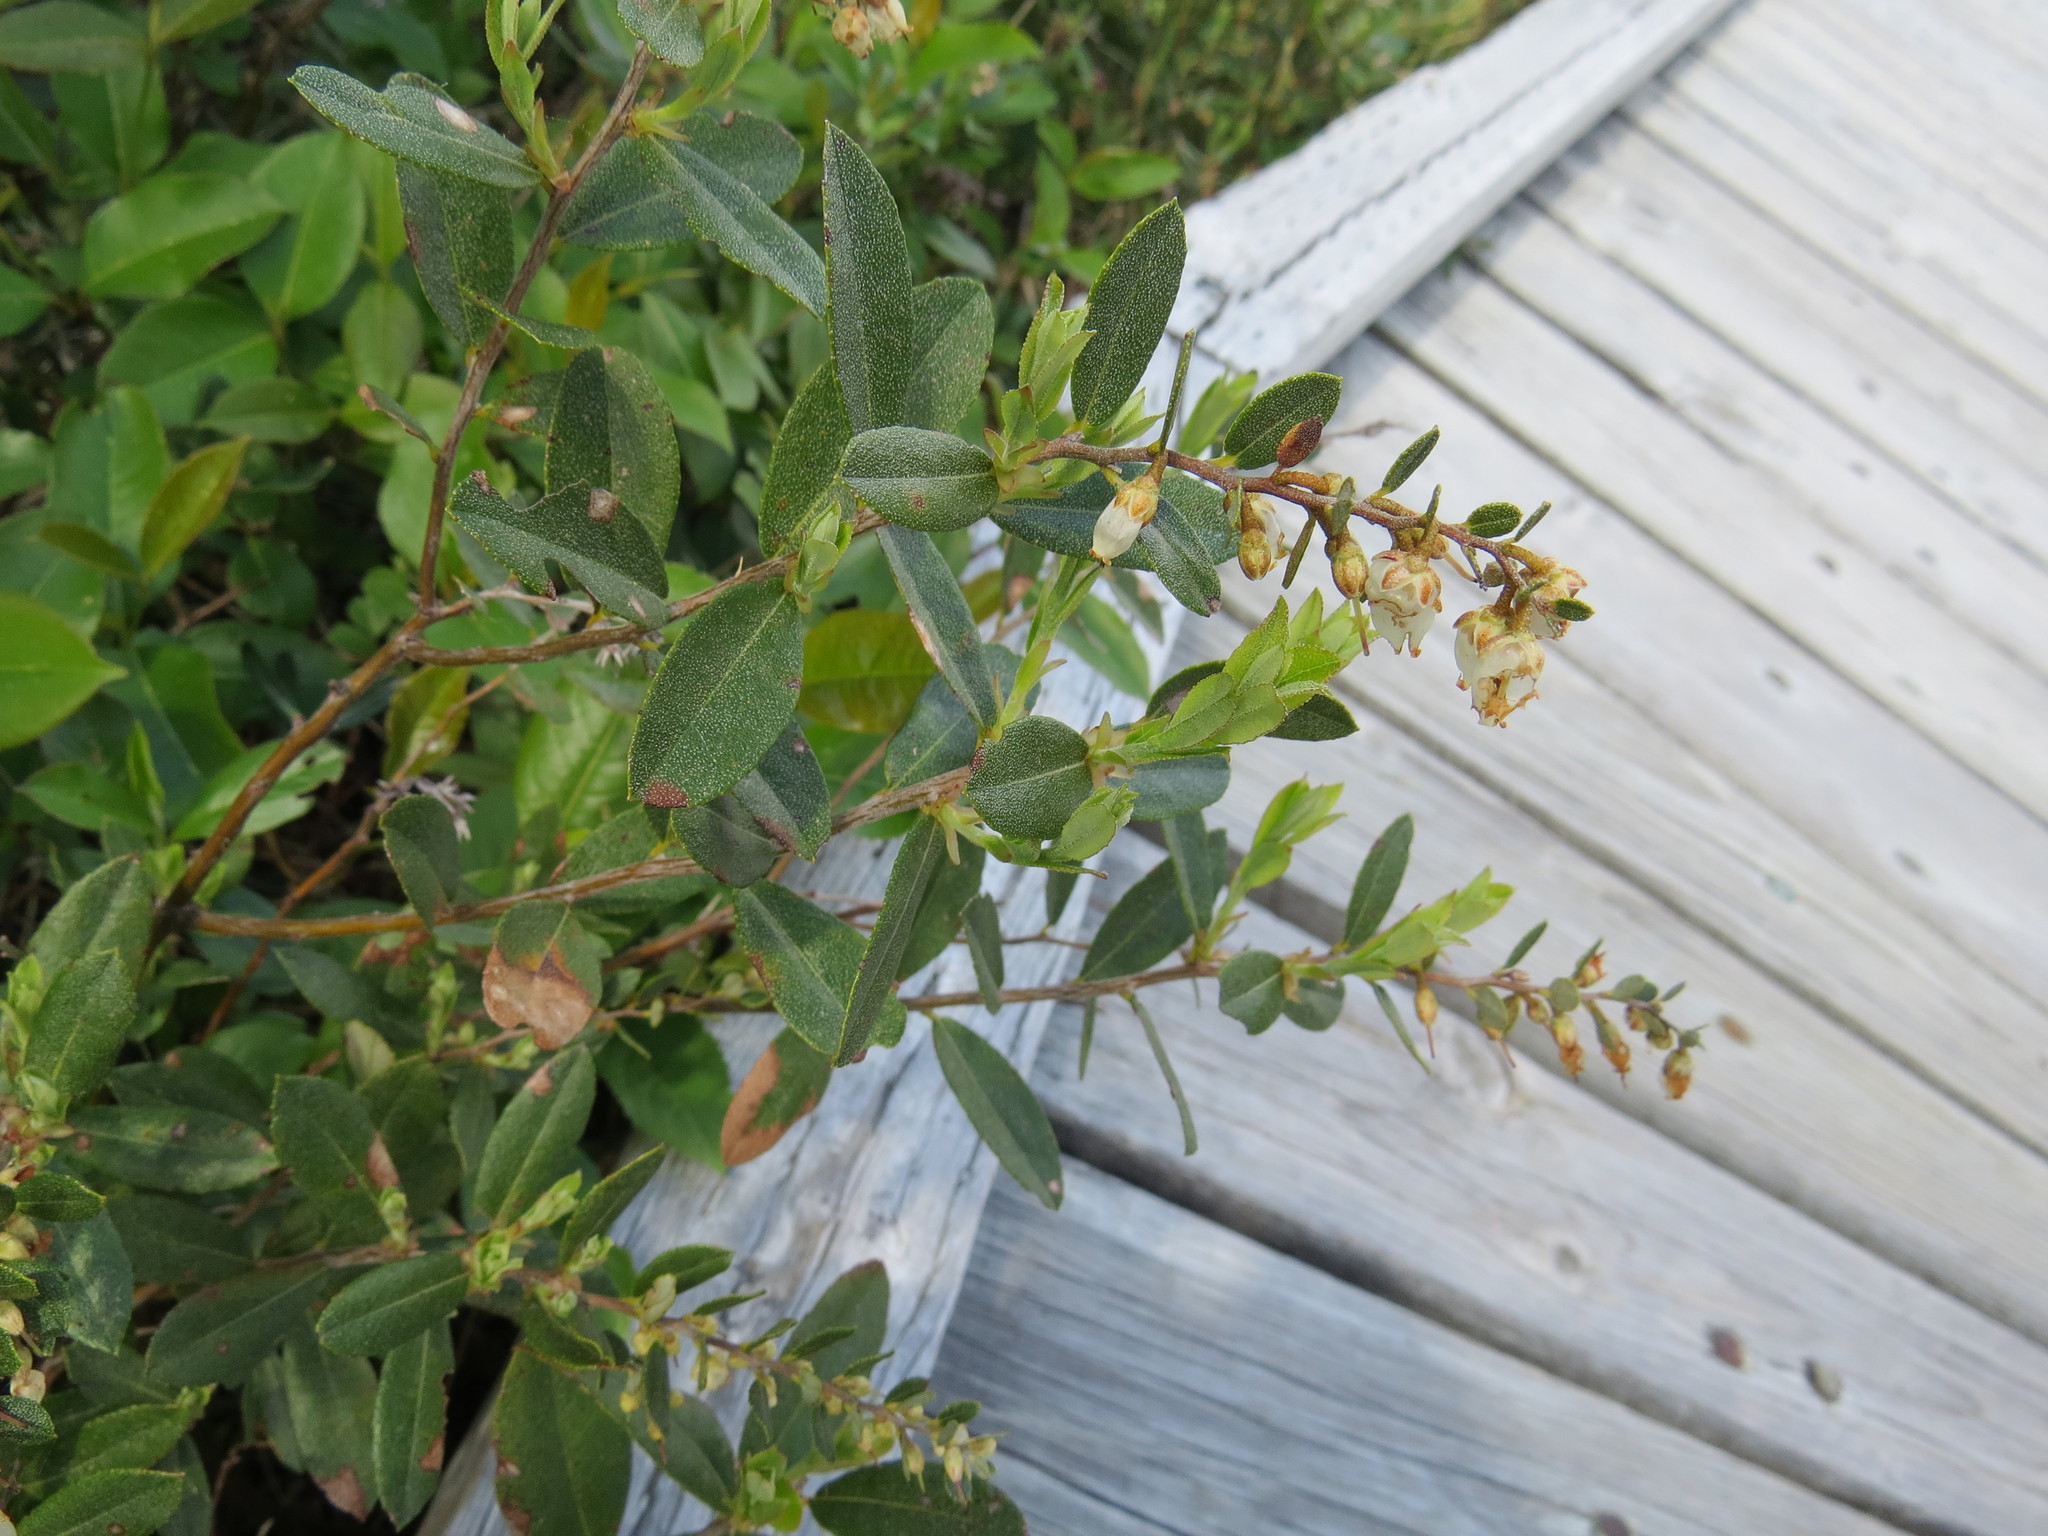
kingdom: Plantae
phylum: Tracheophyta
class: Magnoliopsida
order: Ericales
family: Ericaceae
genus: Chamaedaphne
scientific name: Chamaedaphne calyculata
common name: Leatherleaf
